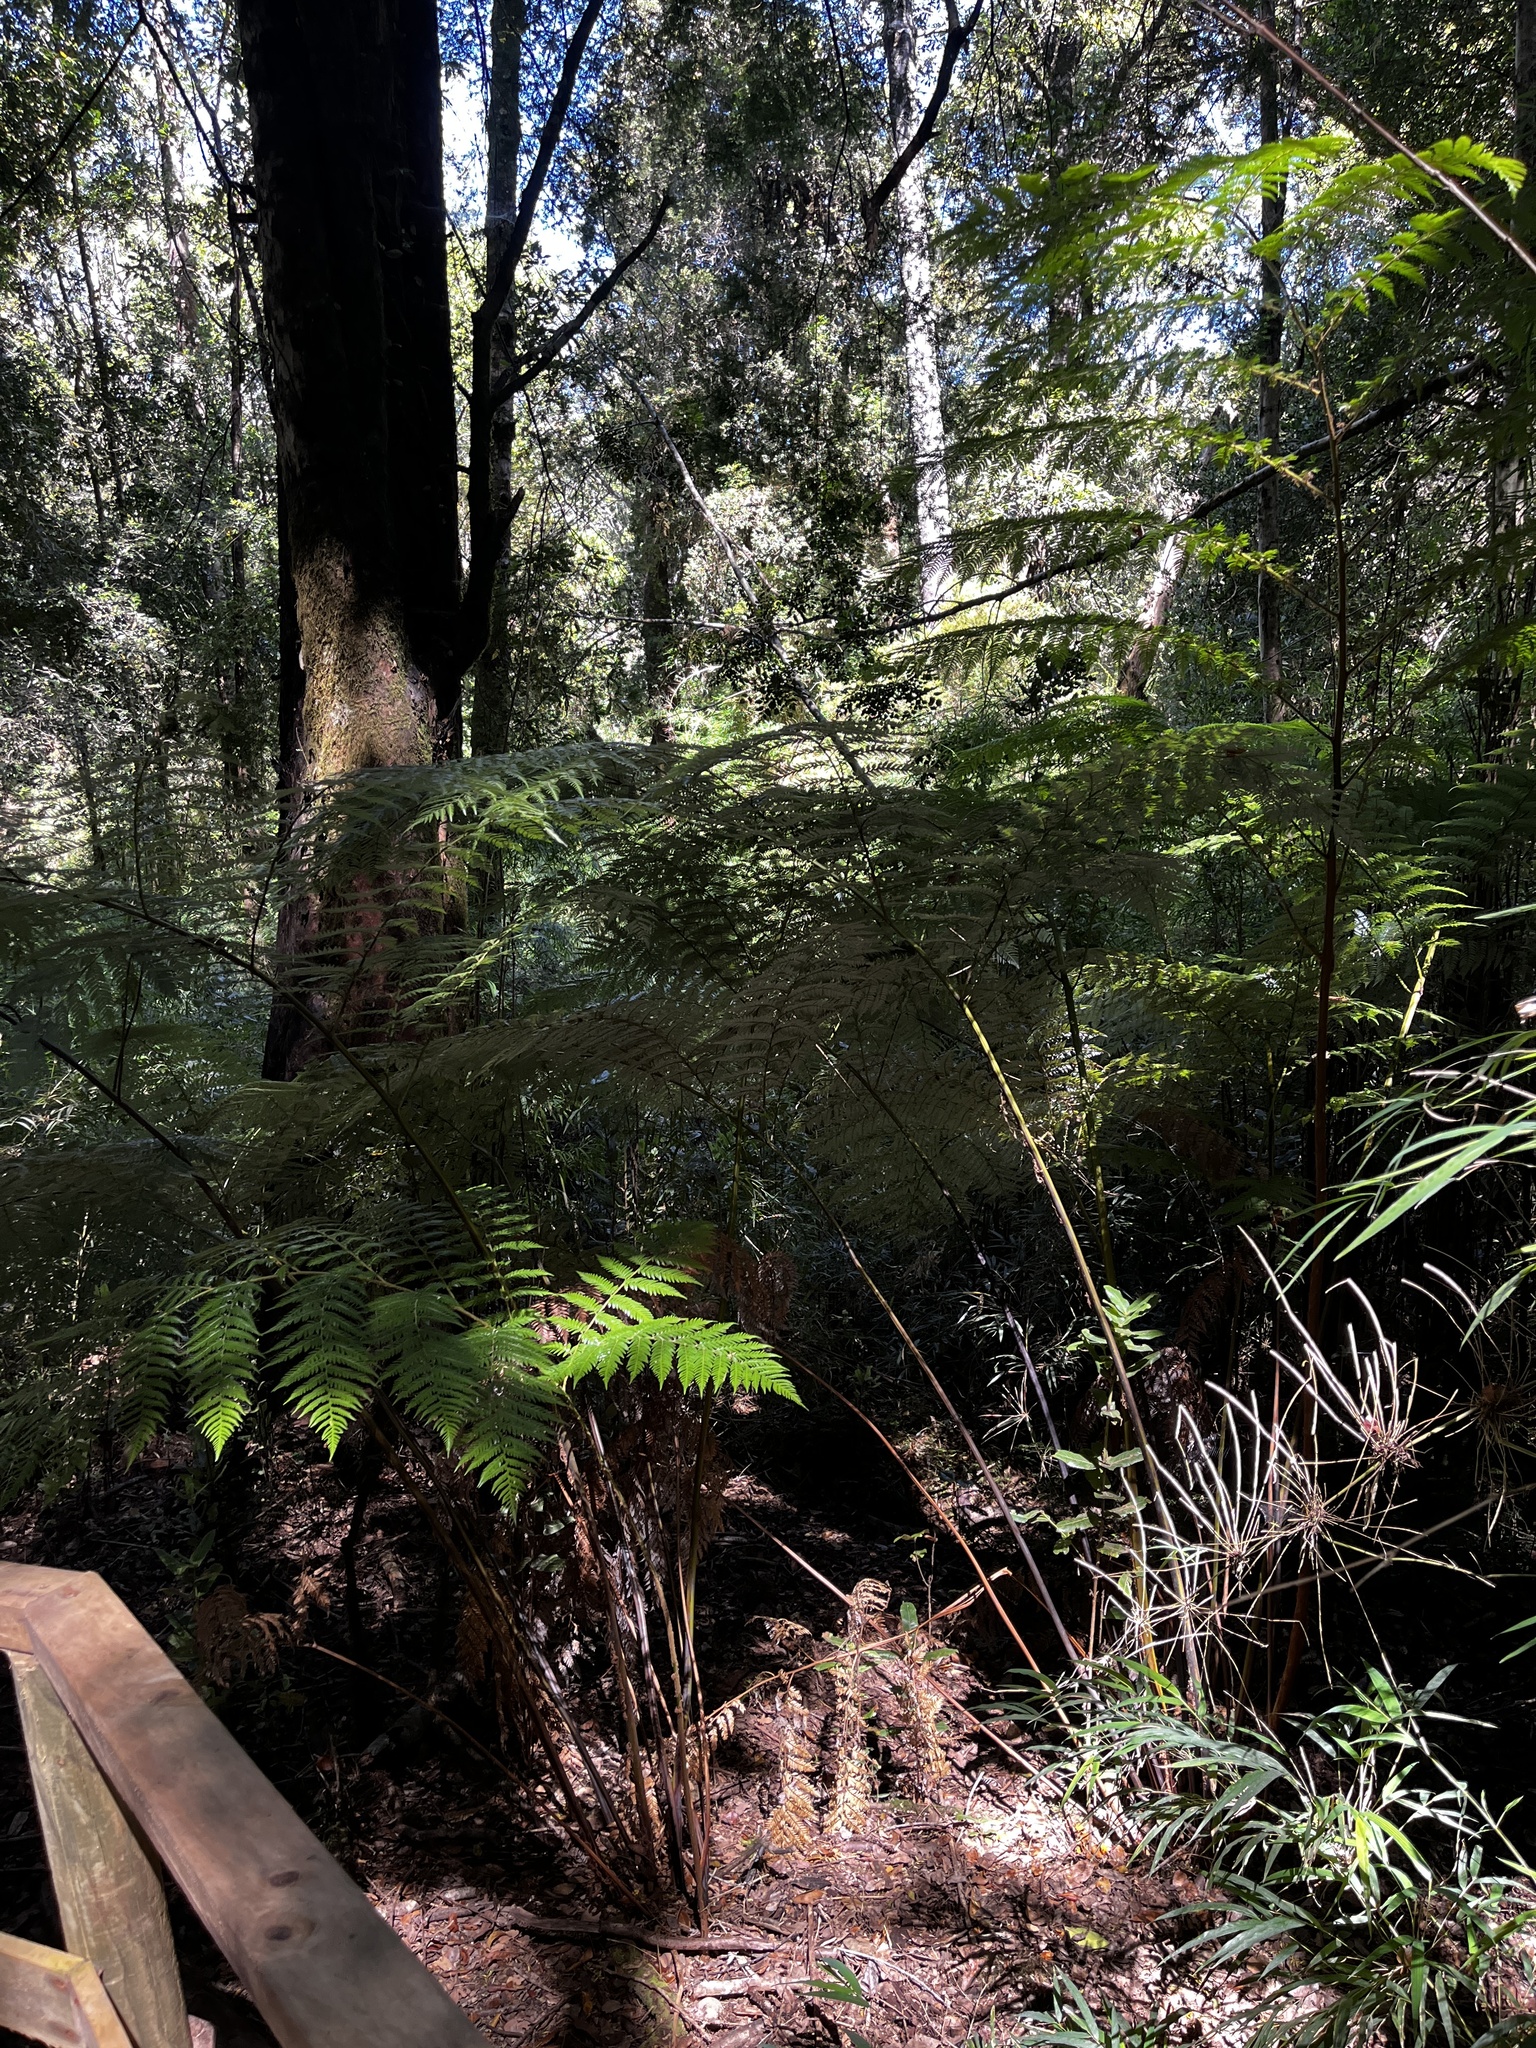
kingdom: Plantae
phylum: Tracheophyta
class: Polypodiopsida
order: Cyatheales
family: Dicksoniaceae
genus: Lophosoria
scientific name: Lophosoria quadripinnata
